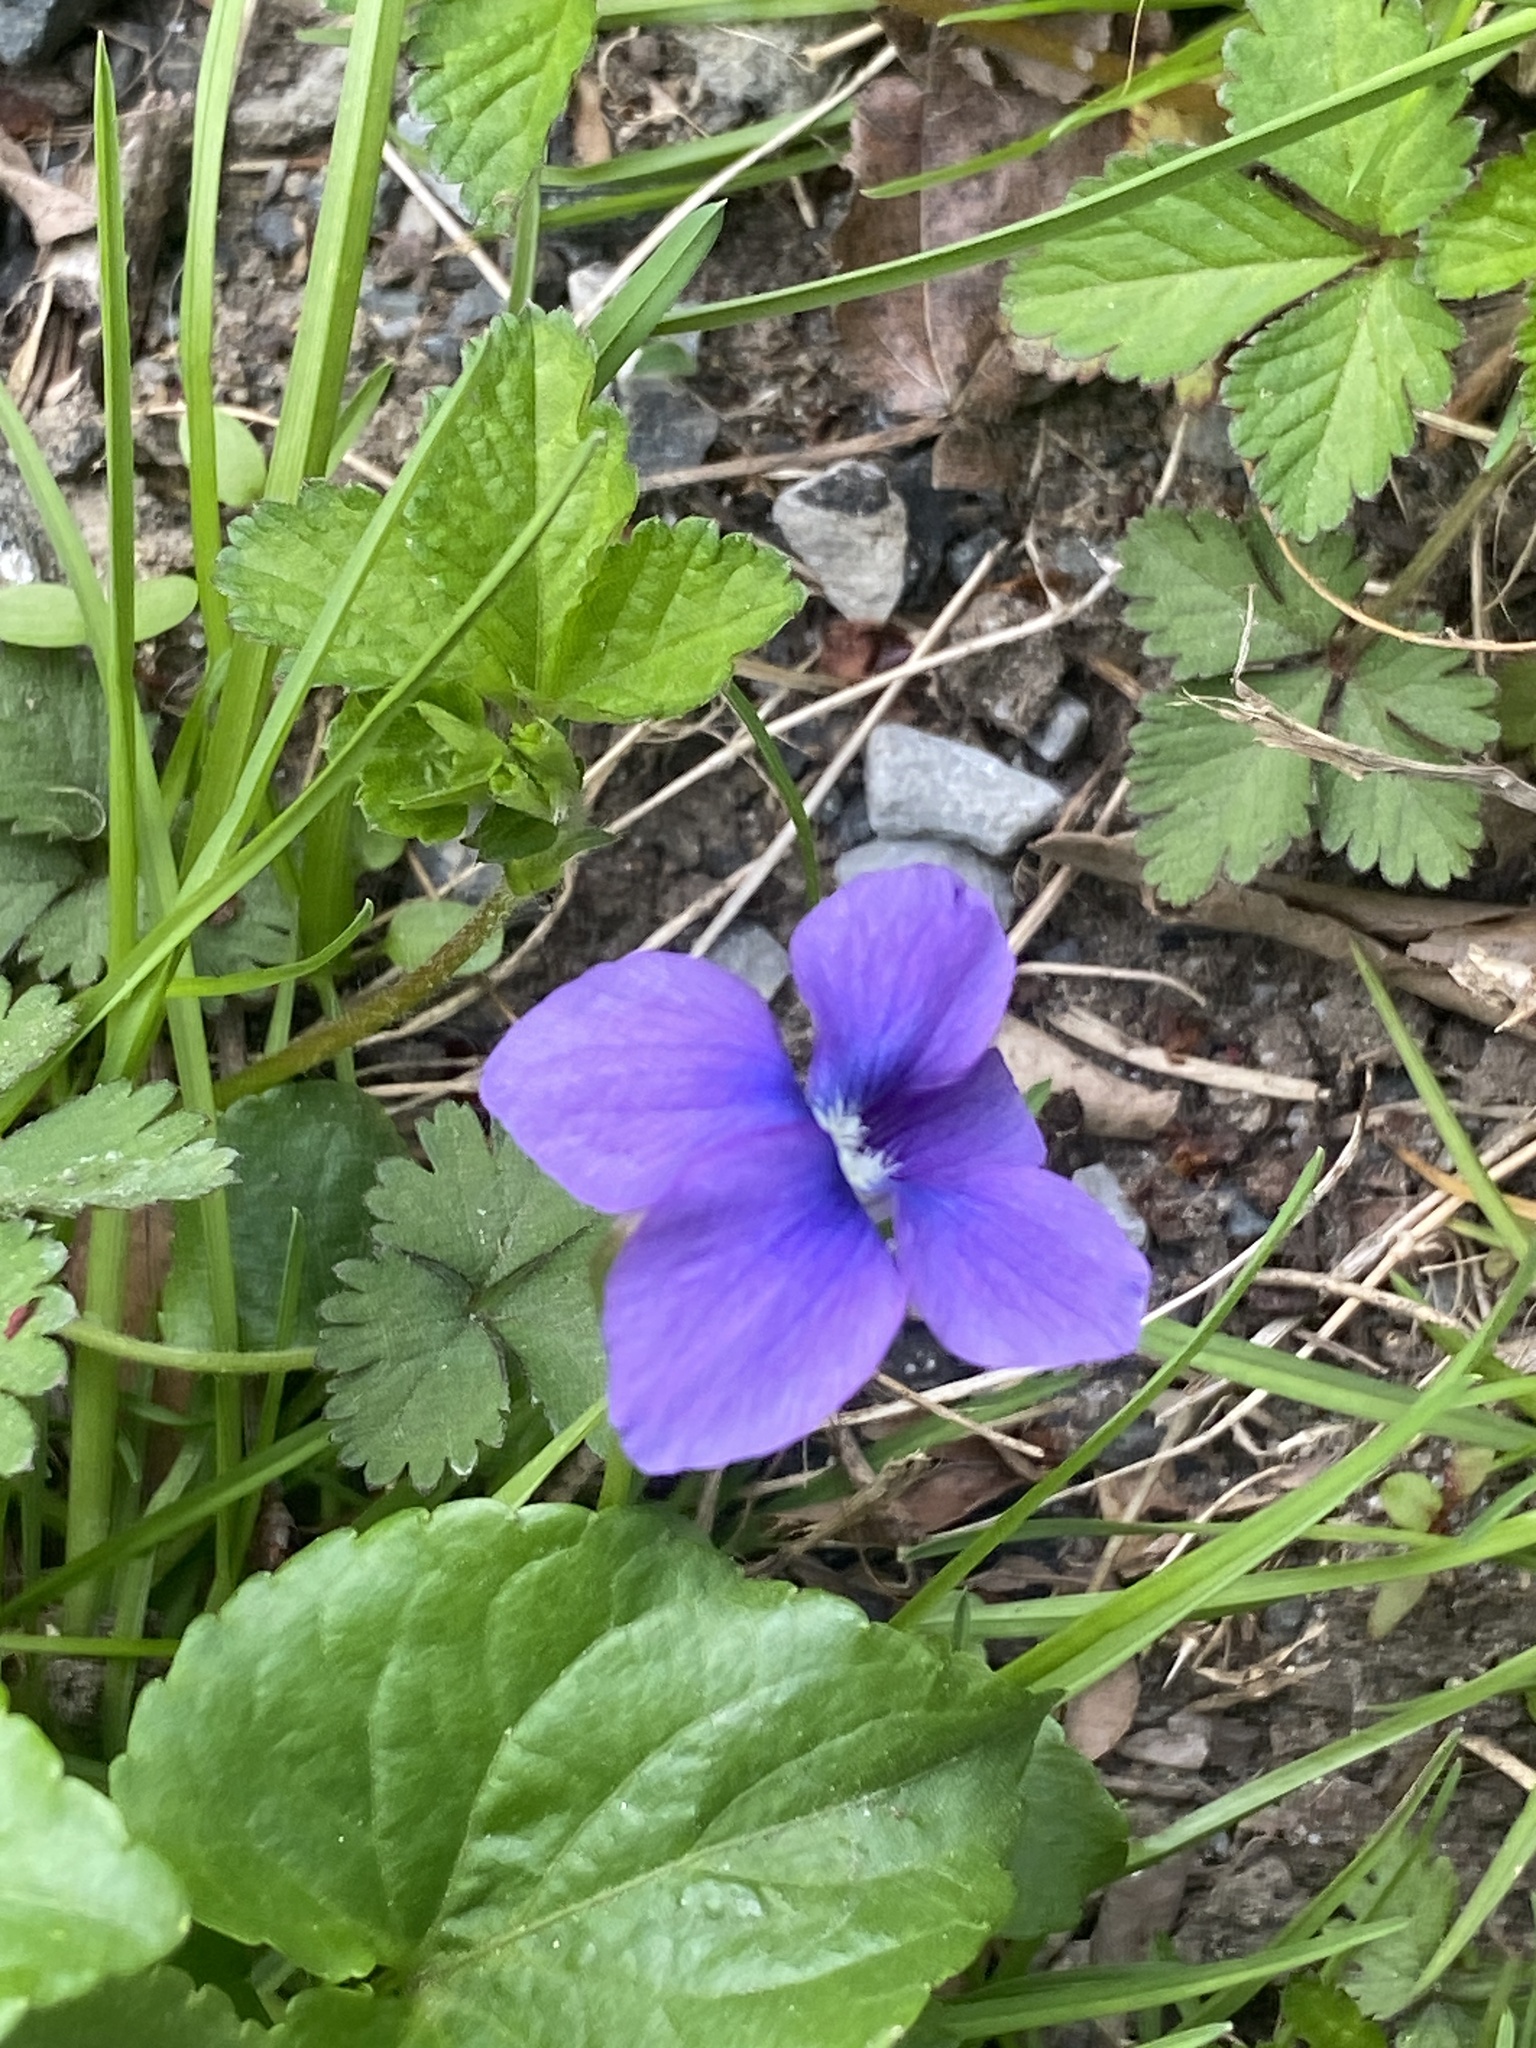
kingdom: Plantae
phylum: Tracheophyta
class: Magnoliopsida
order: Malpighiales
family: Violaceae
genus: Viola
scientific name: Viola sororia
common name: Dooryard violet
